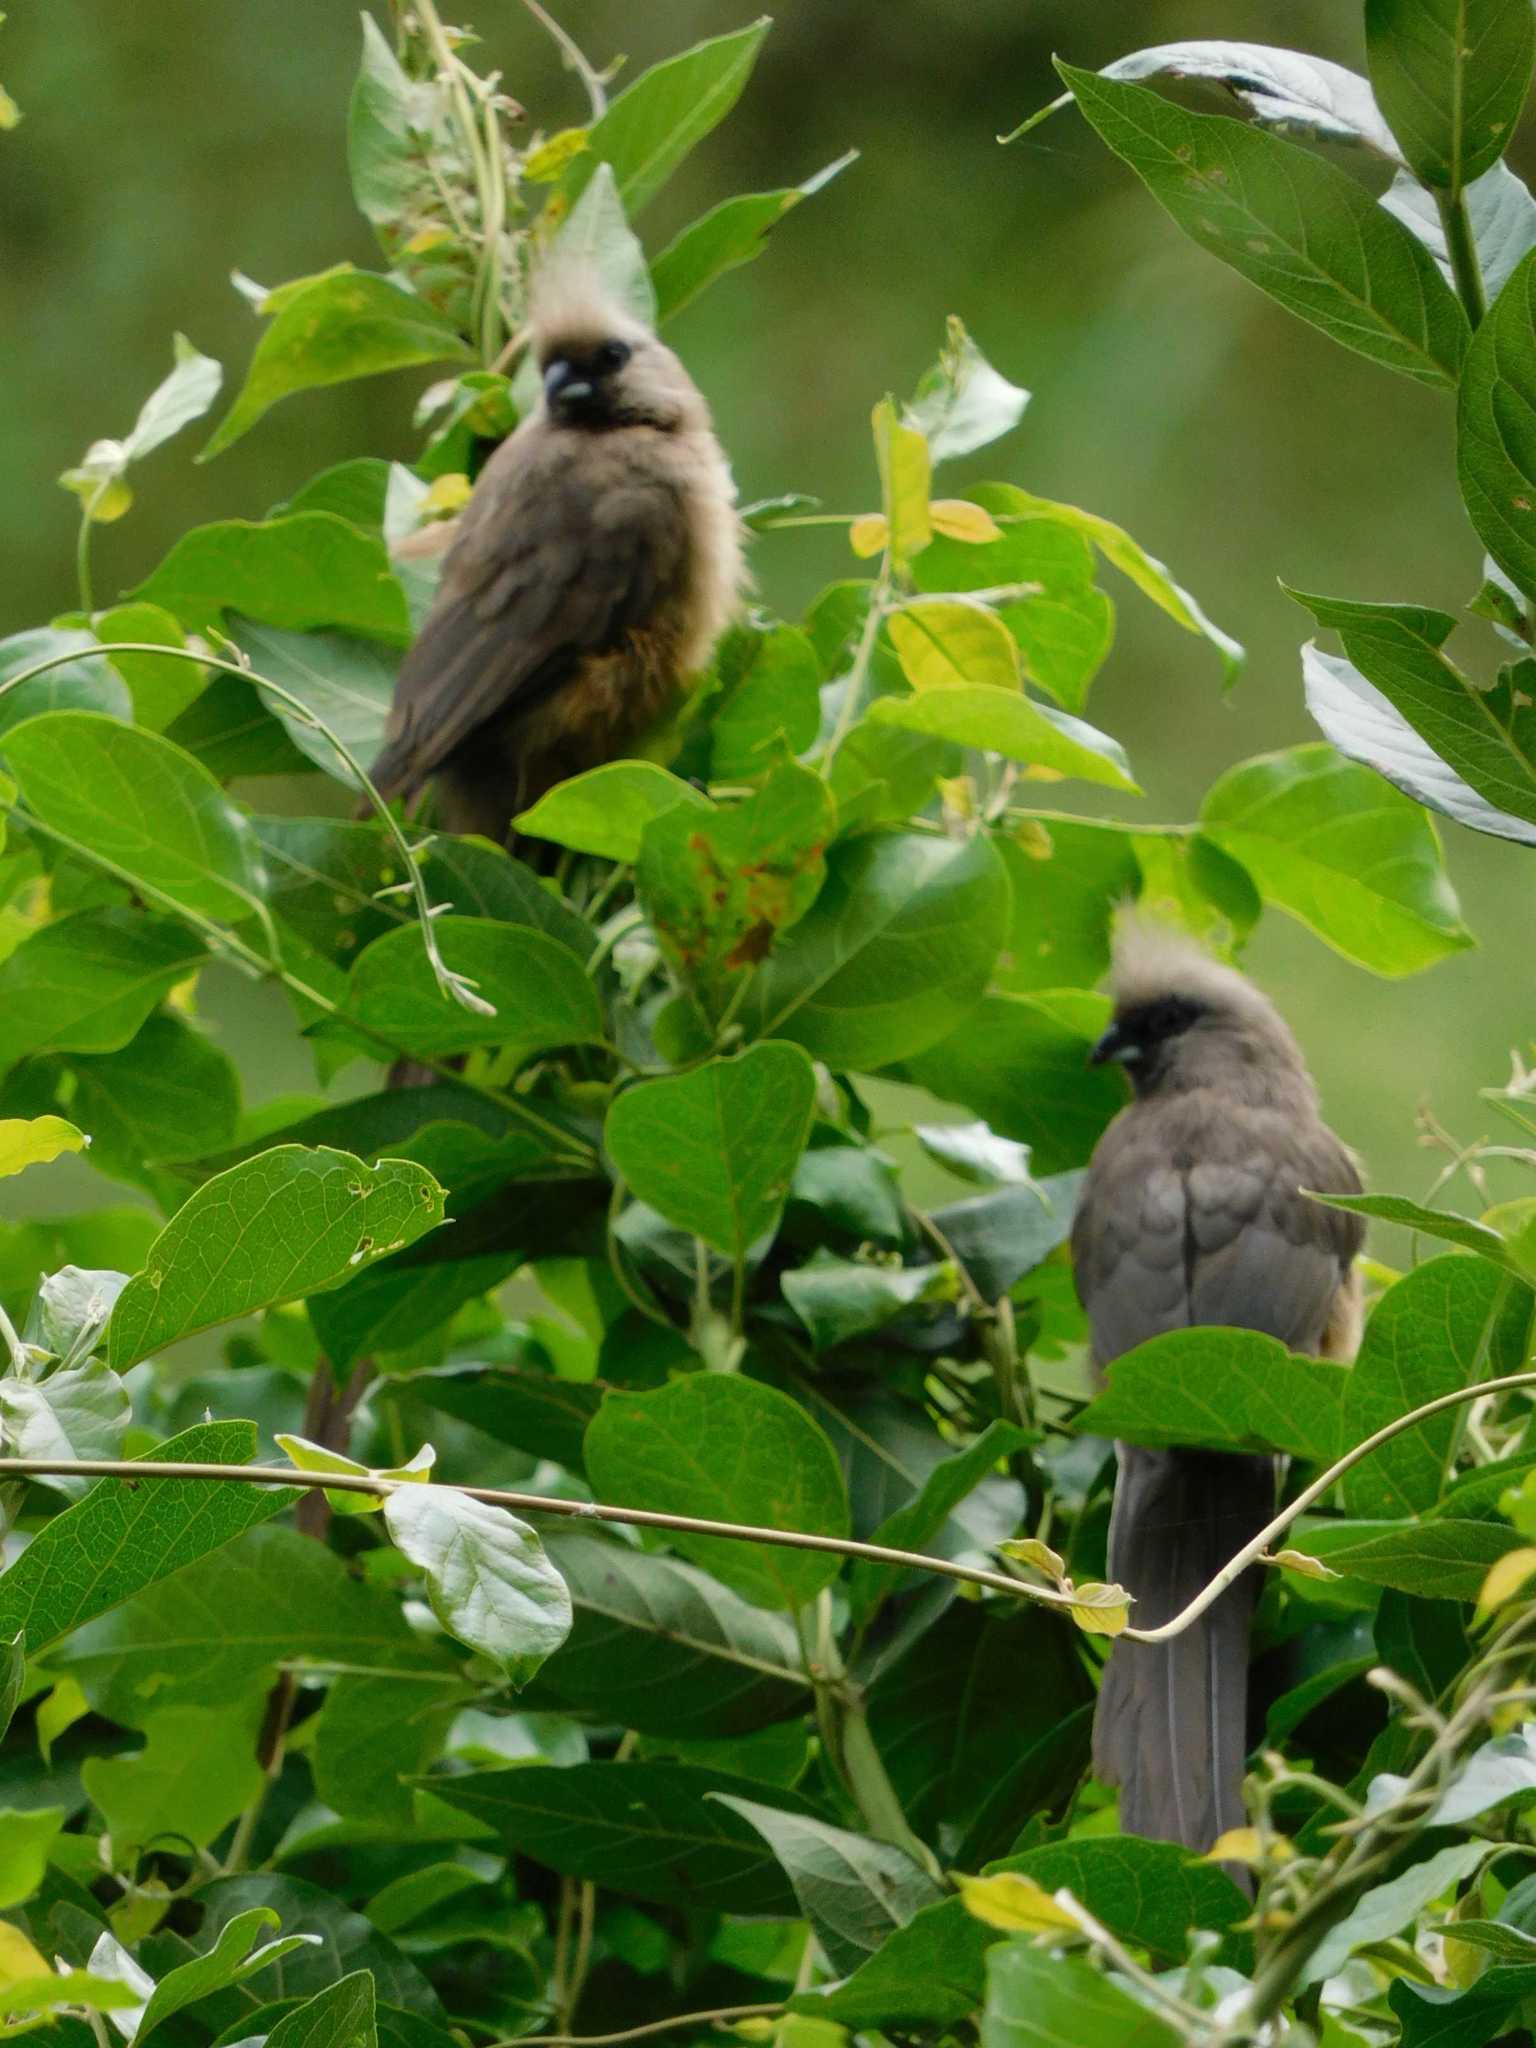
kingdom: Animalia
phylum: Chordata
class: Aves
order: Coliiformes
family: Coliidae
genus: Colius
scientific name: Colius striatus
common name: Speckled mousebird
